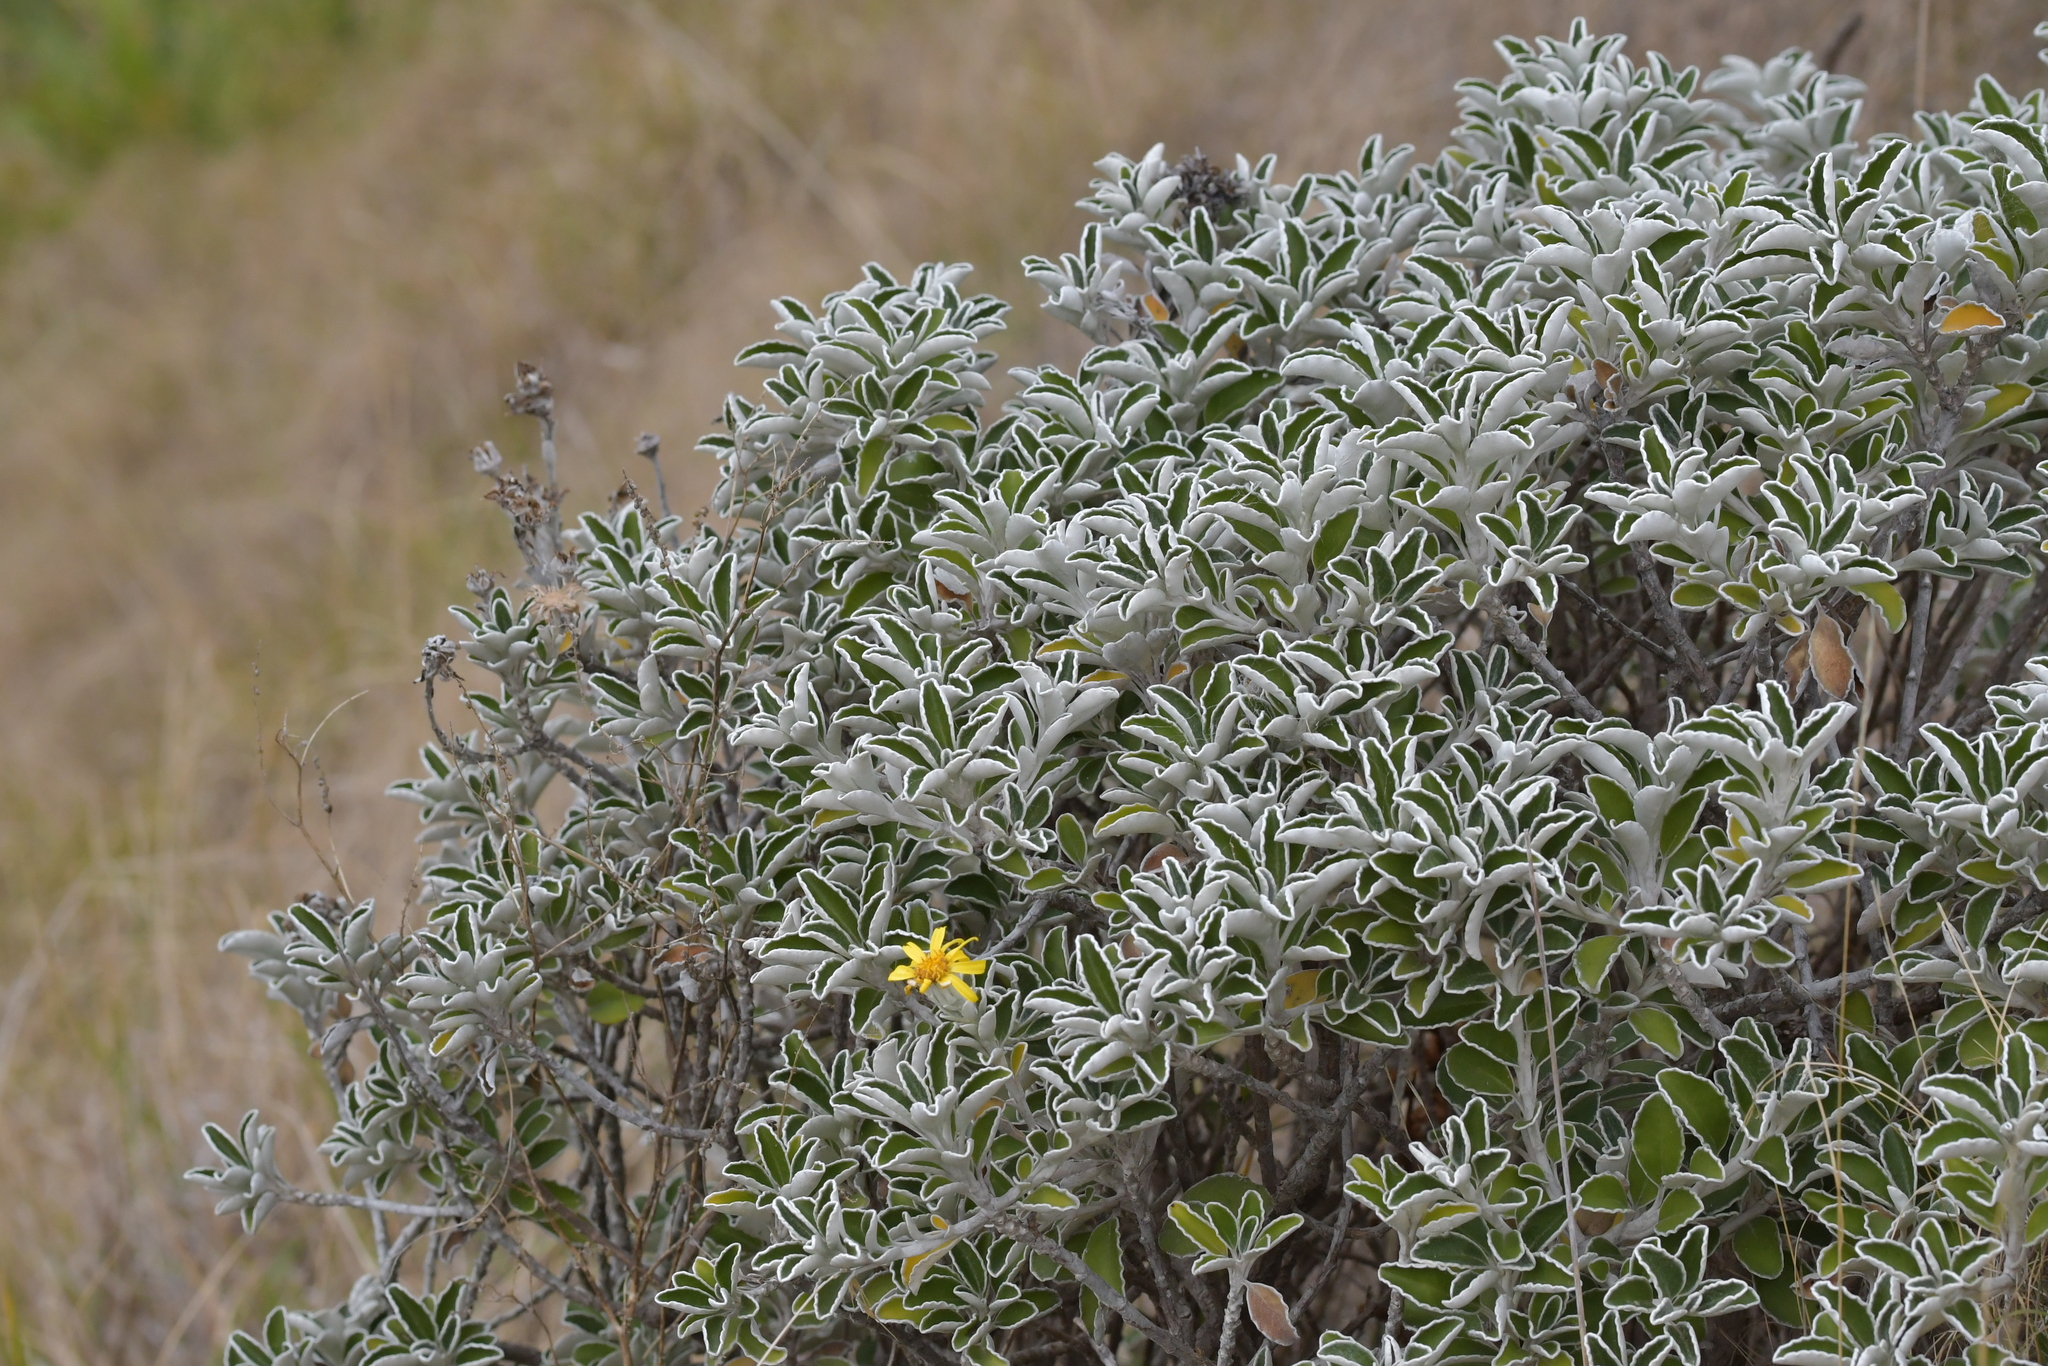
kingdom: Plantae
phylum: Tracheophyta
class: Magnoliopsida
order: Asterales
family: Asteraceae
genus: Brachyglottis
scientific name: Brachyglottis compacta
